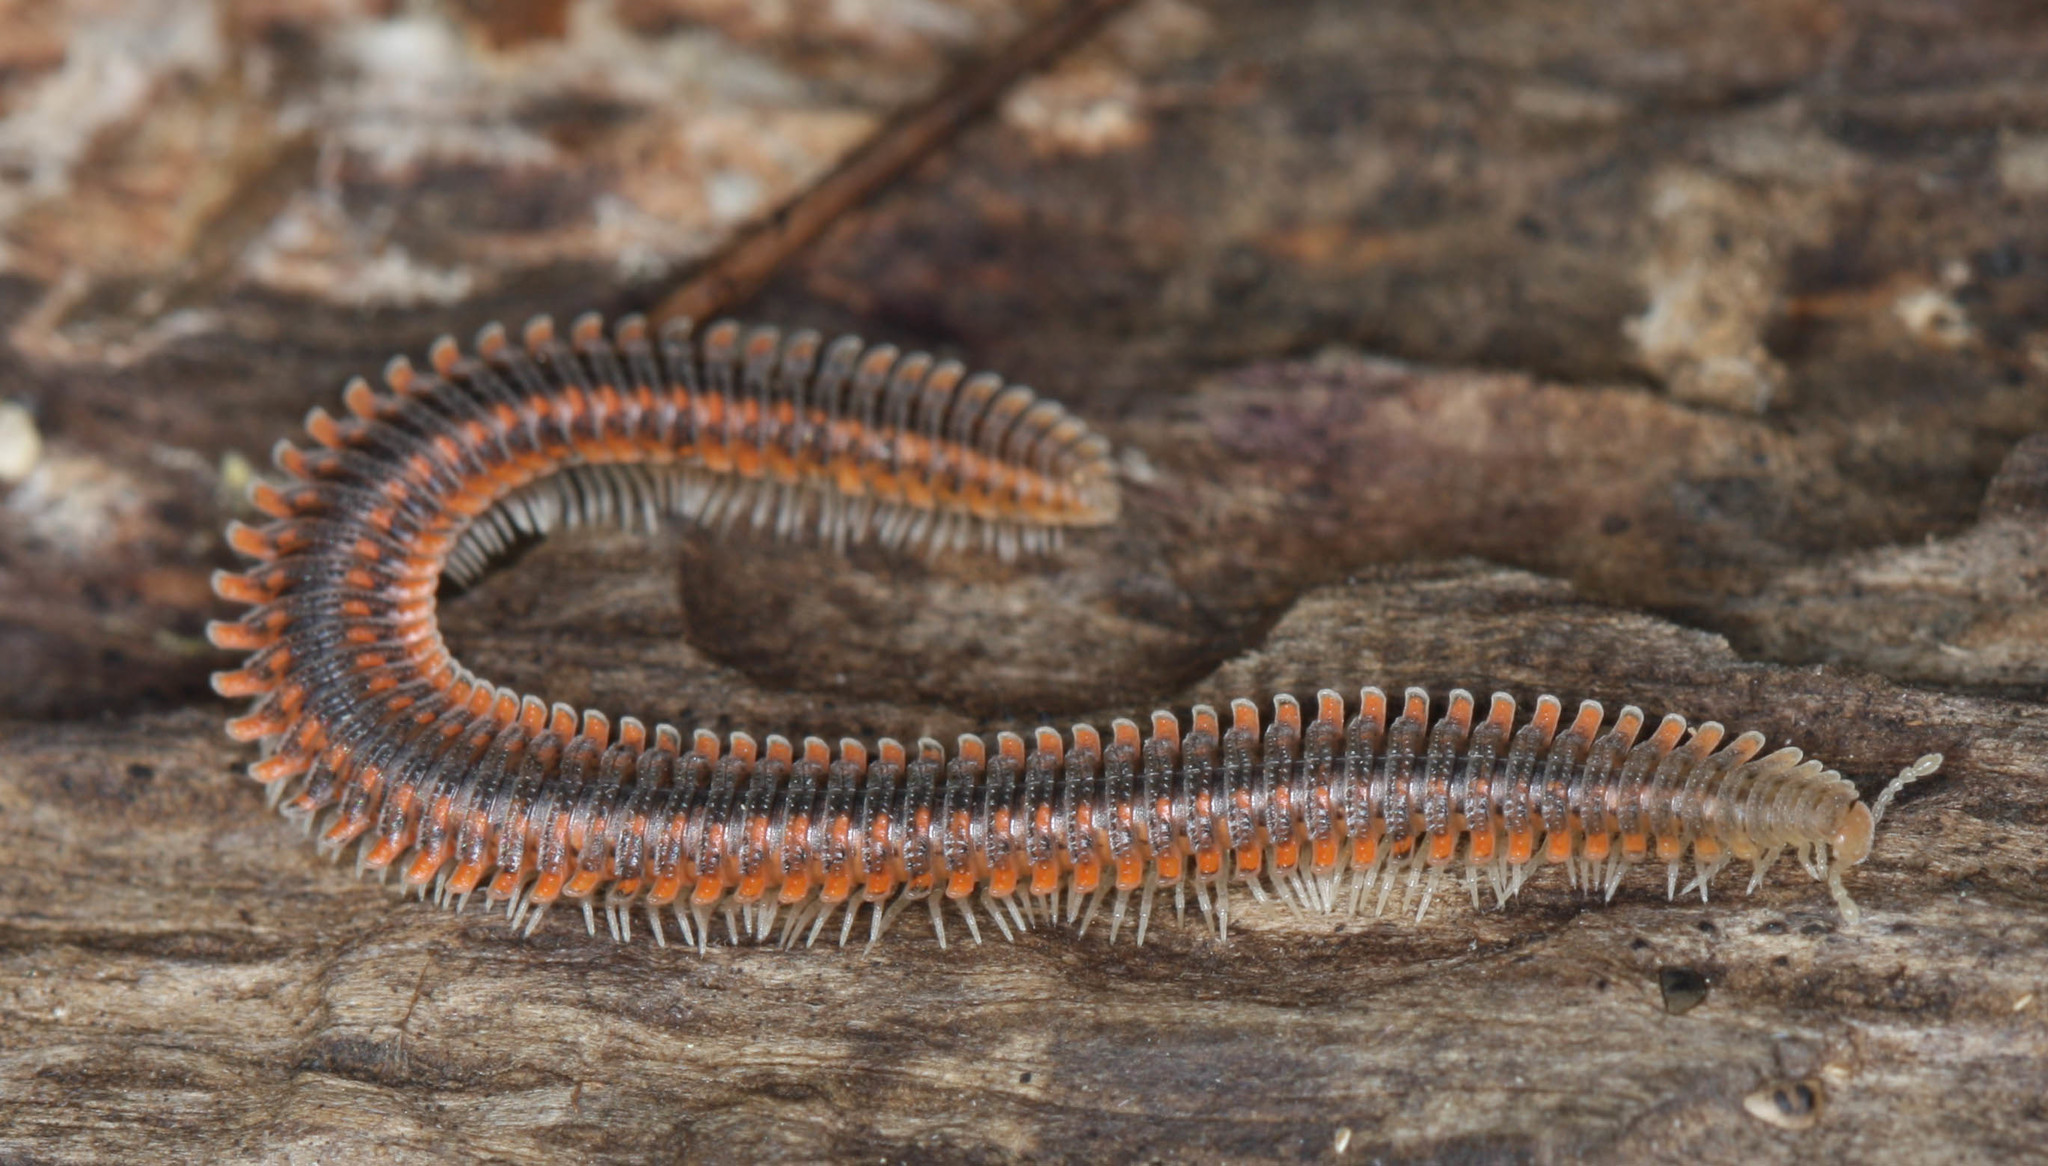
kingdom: Animalia
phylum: Arthropoda
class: Diplopoda
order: Platydesmida
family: Andrognathidae
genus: Brachycybe
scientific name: Brachycybe producta
